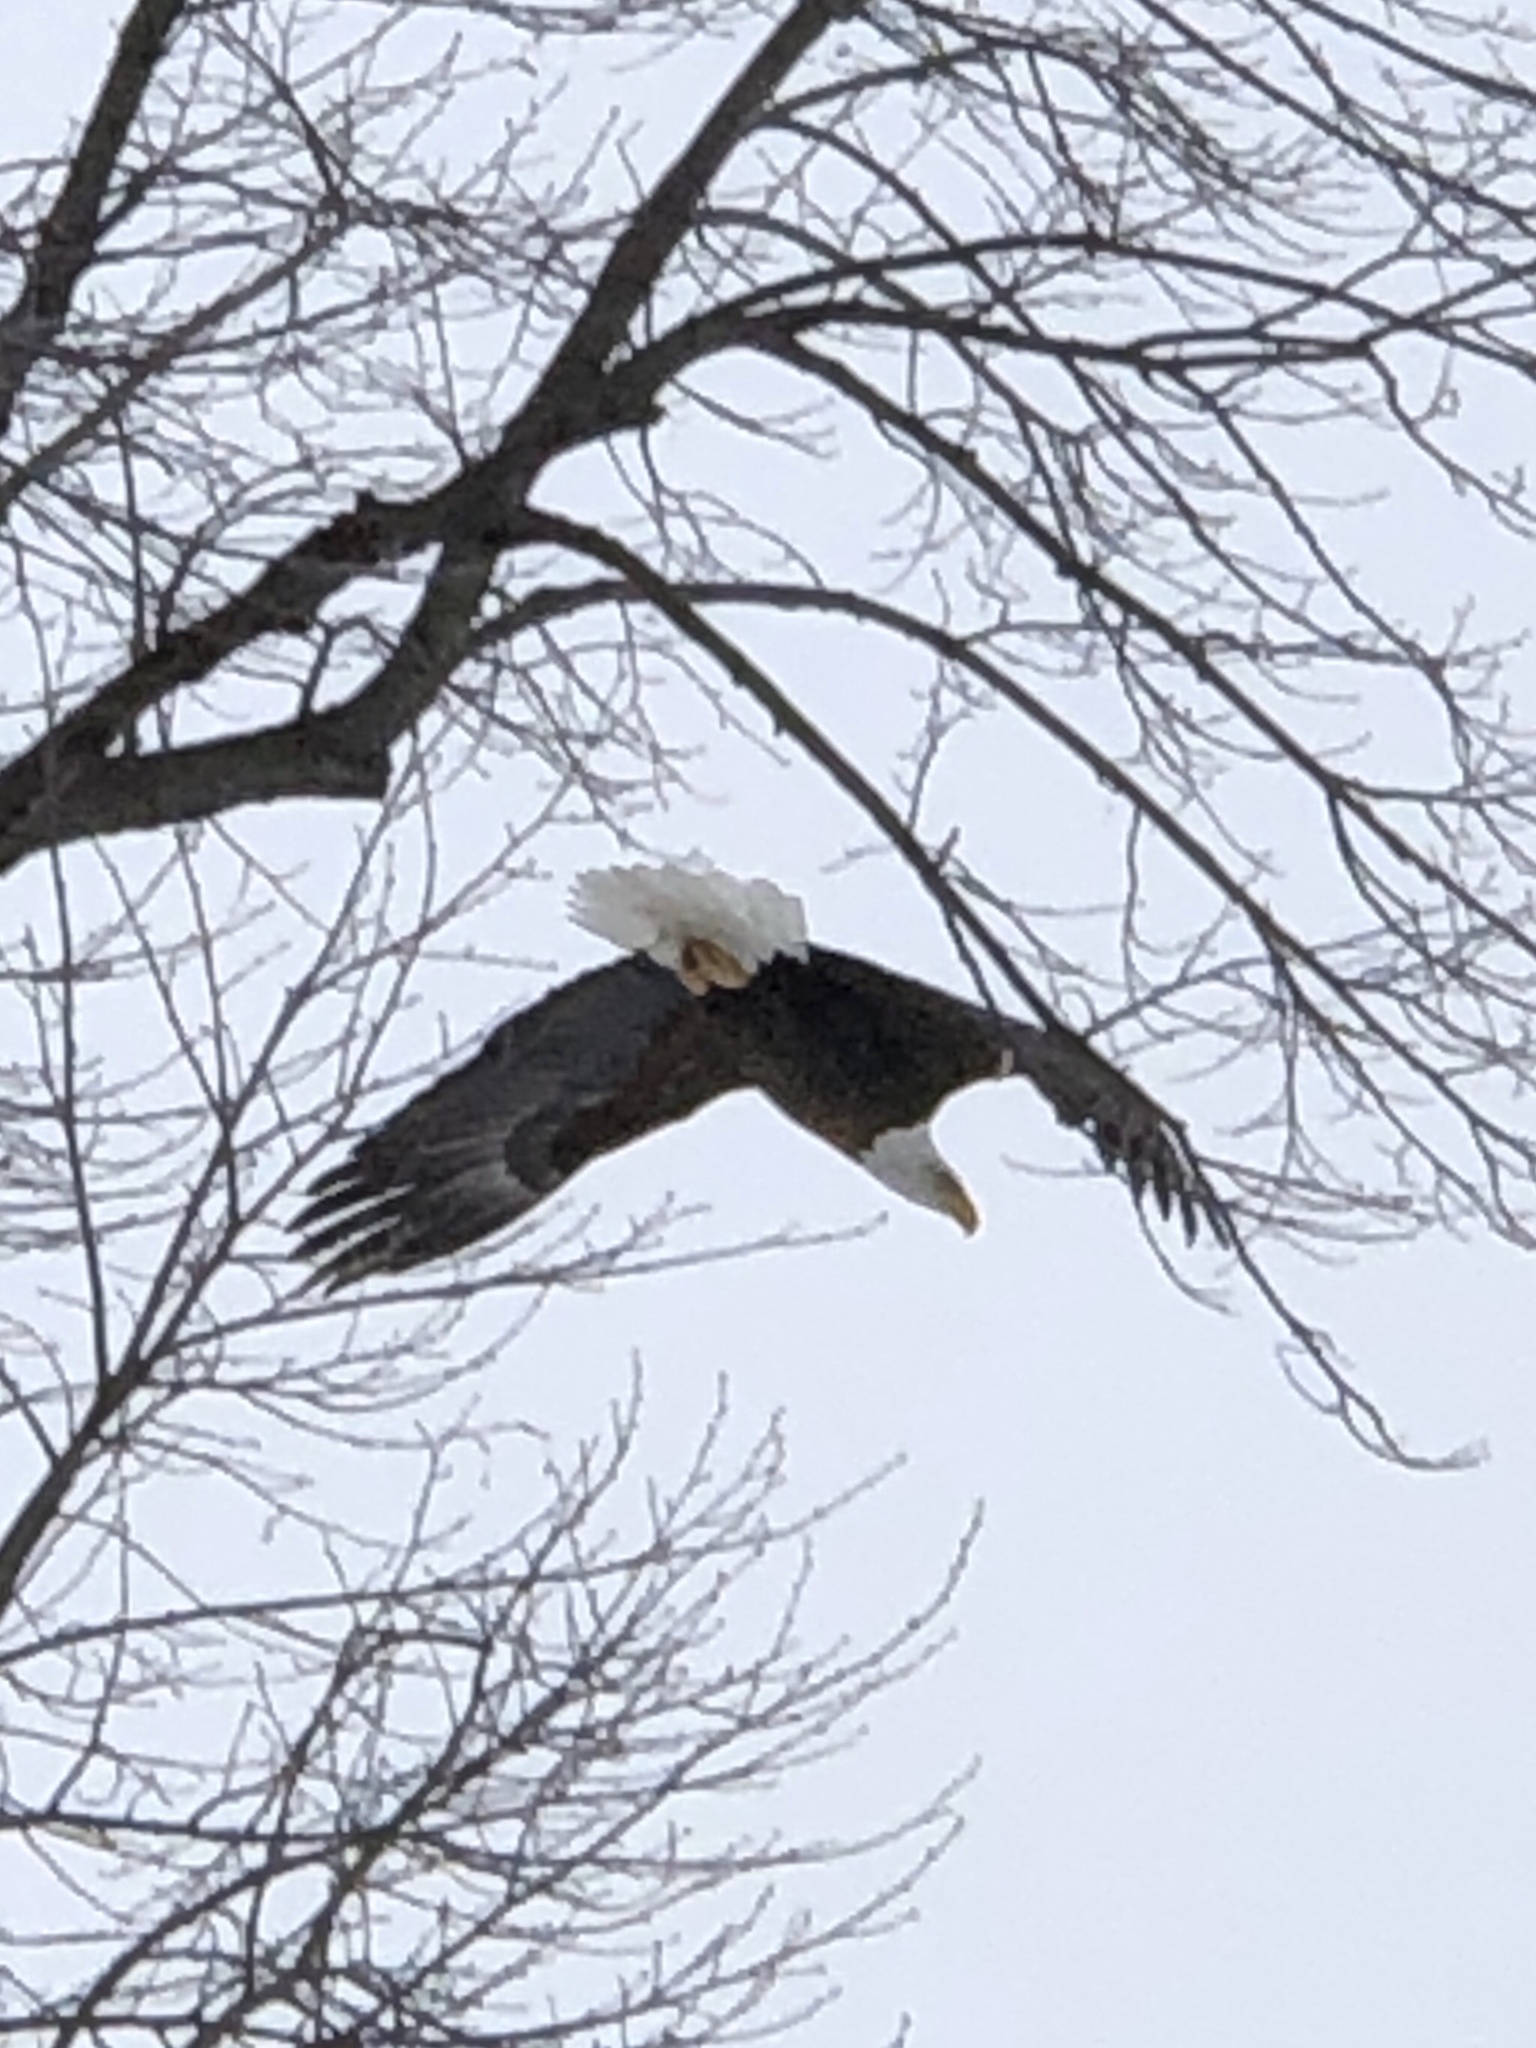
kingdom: Animalia
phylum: Chordata
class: Aves
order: Accipitriformes
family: Accipitridae
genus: Haliaeetus
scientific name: Haliaeetus leucocephalus
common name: Bald eagle
